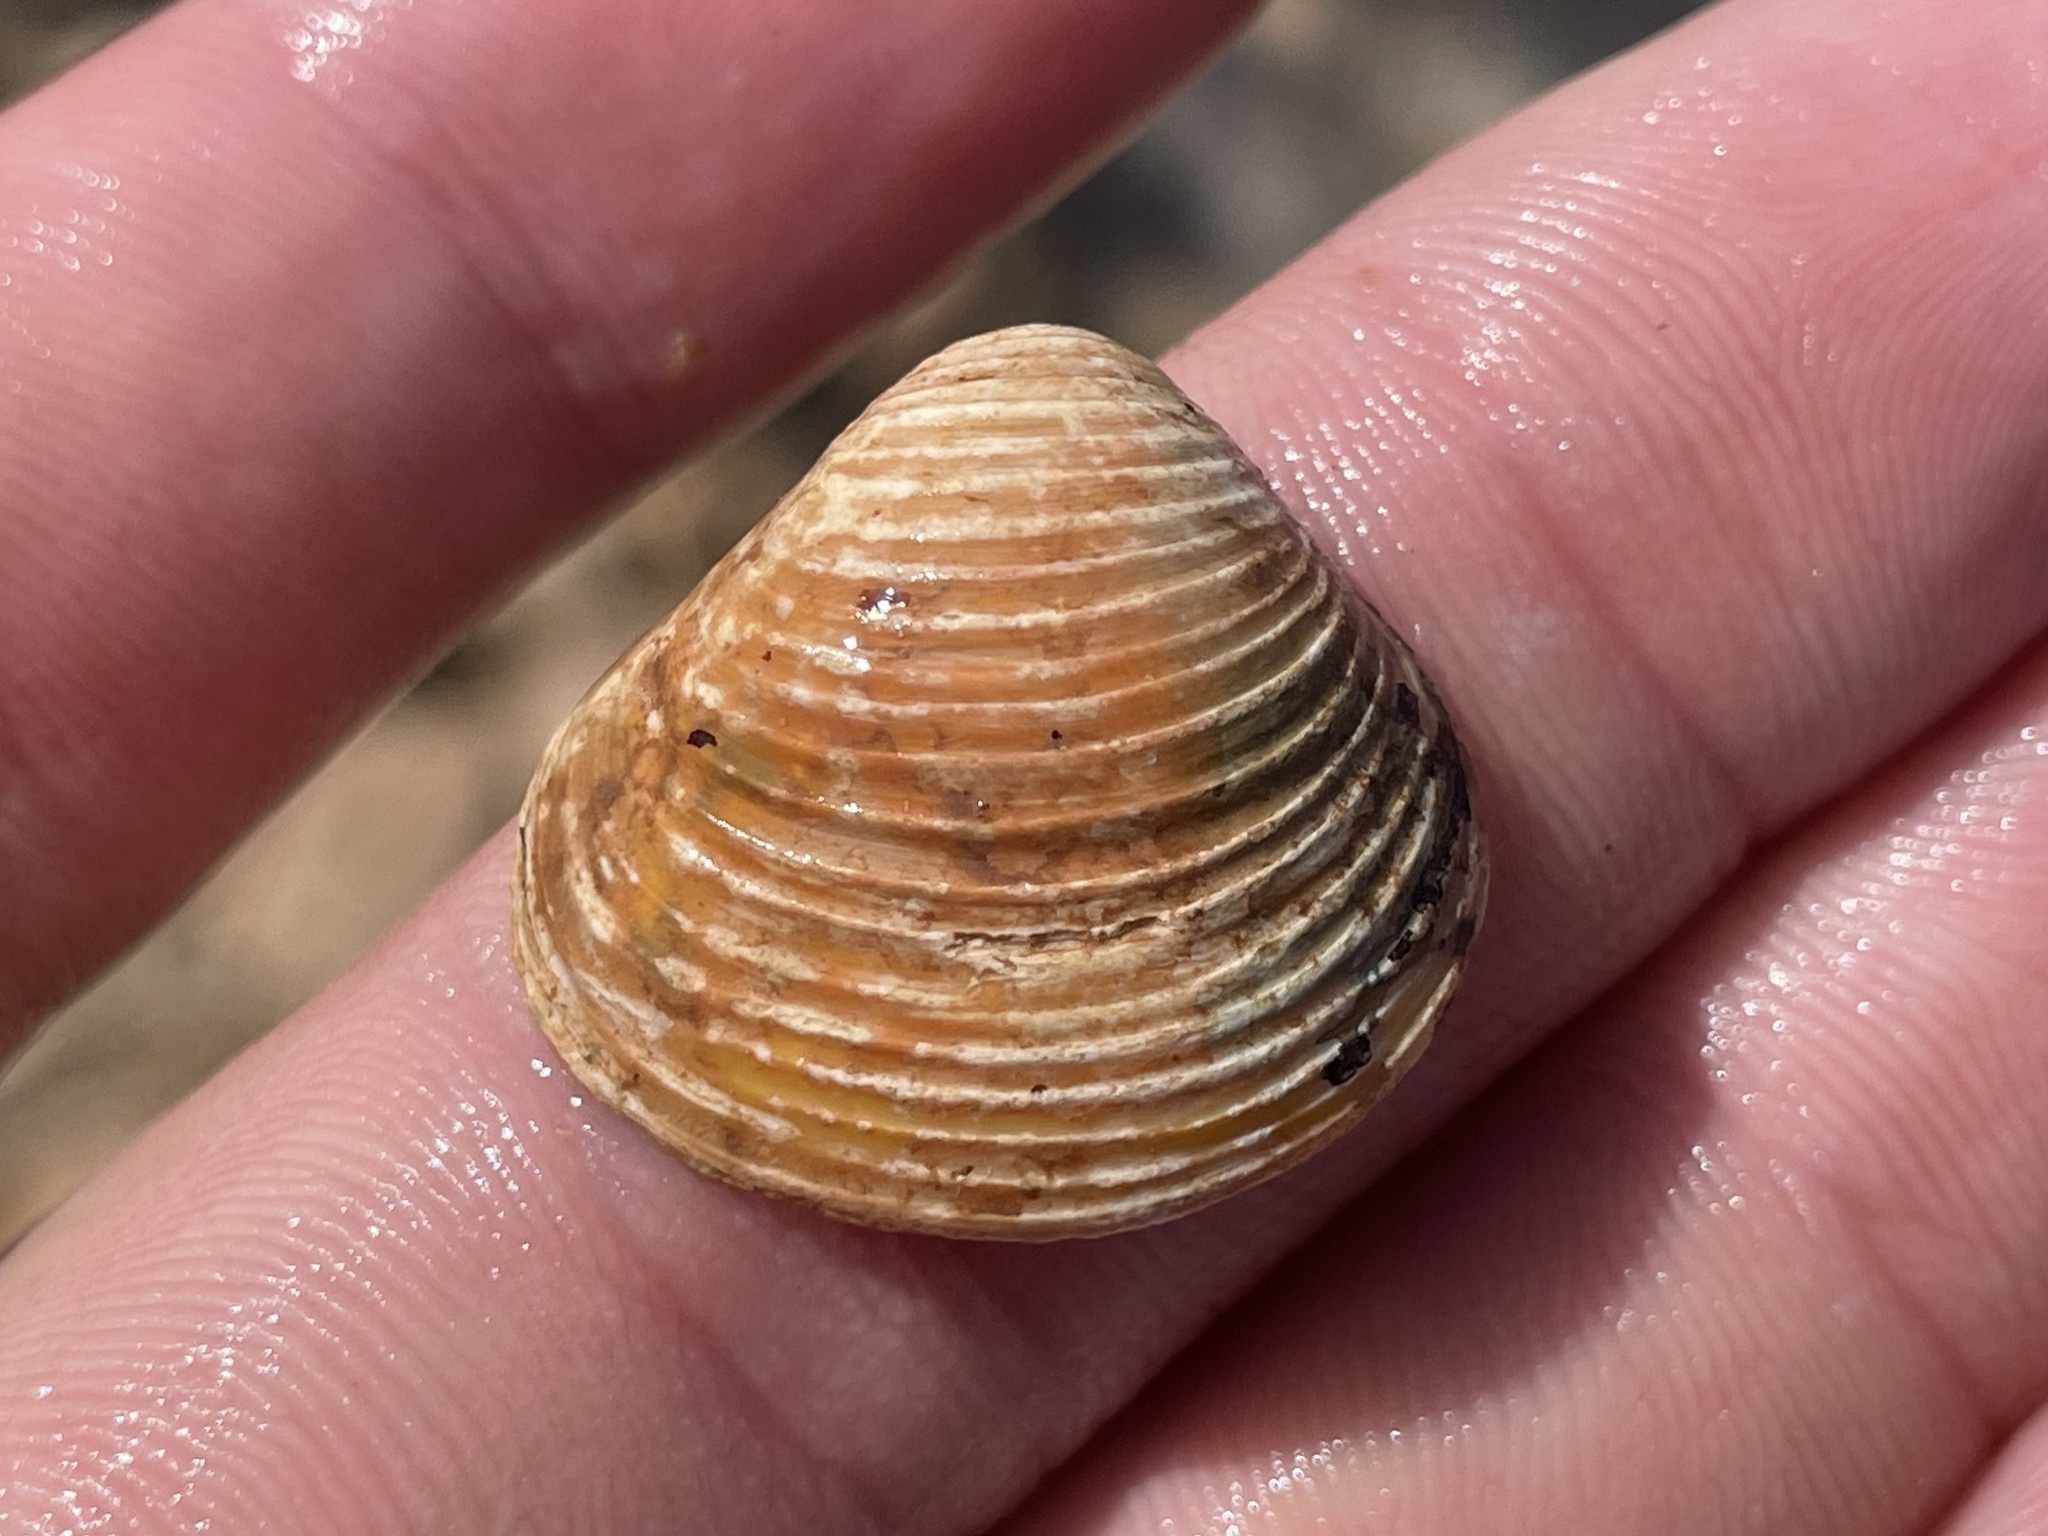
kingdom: Animalia
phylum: Mollusca
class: Bivalvia
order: Venerida
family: Cyrenidae
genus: Corbicula
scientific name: Corbicula fluminea
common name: Asian clam
